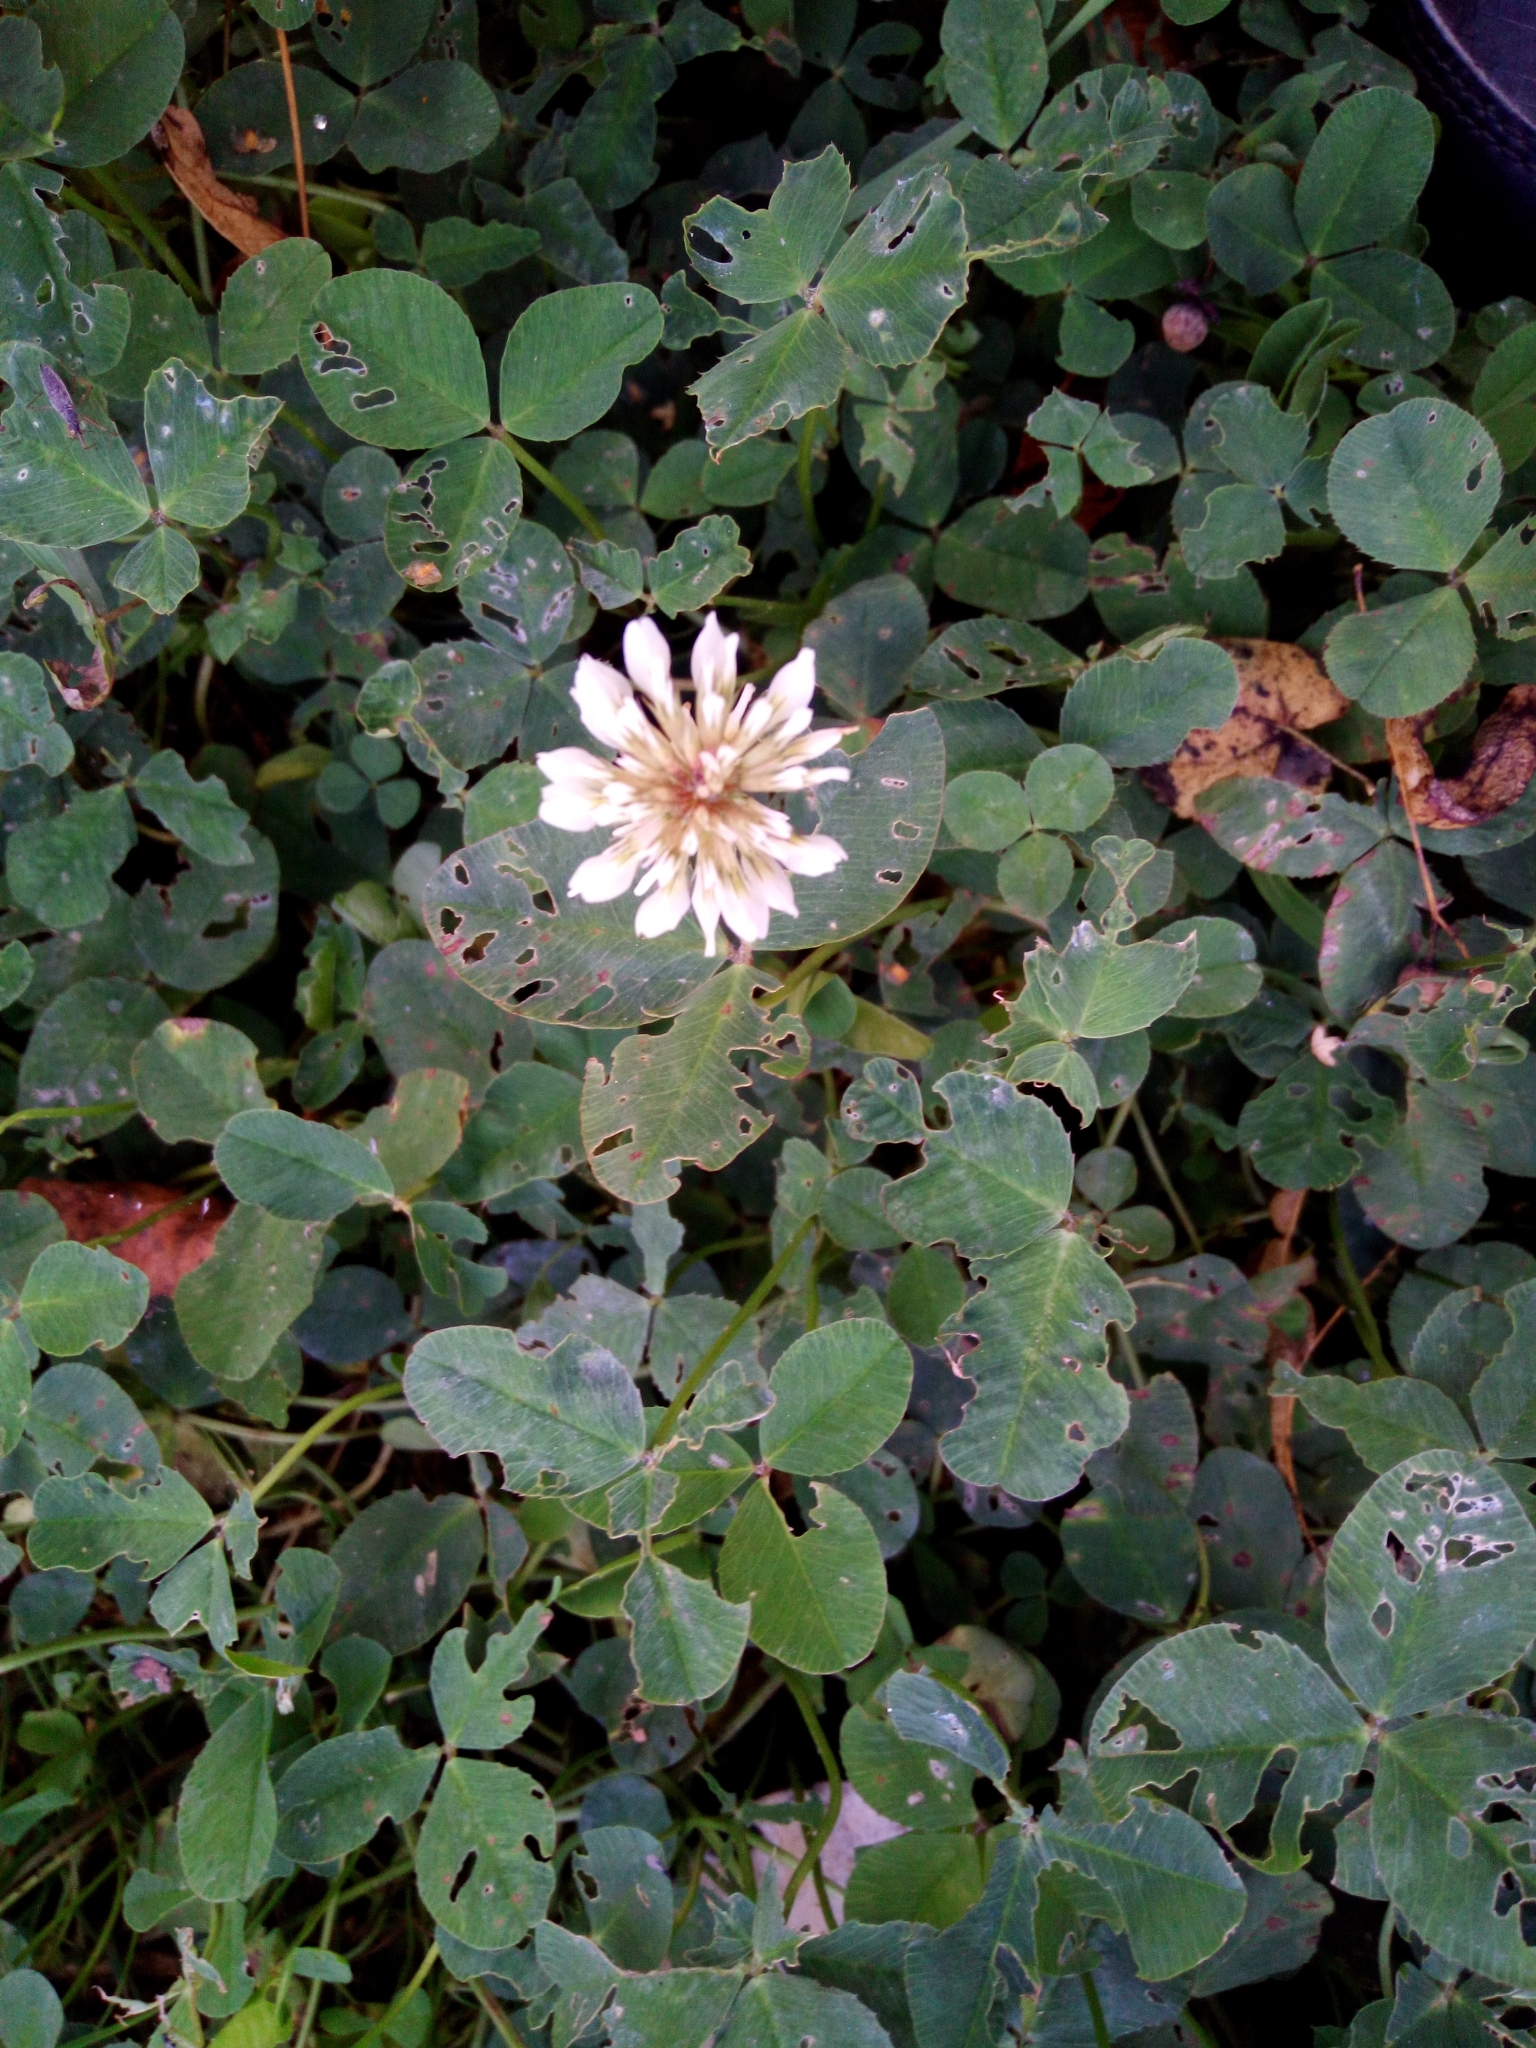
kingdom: Plantae
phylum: Tracheophyta
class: Magnoliopsida
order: Fabales
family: Fabaceae
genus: Trifolium
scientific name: Trifolium repens
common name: White clover
